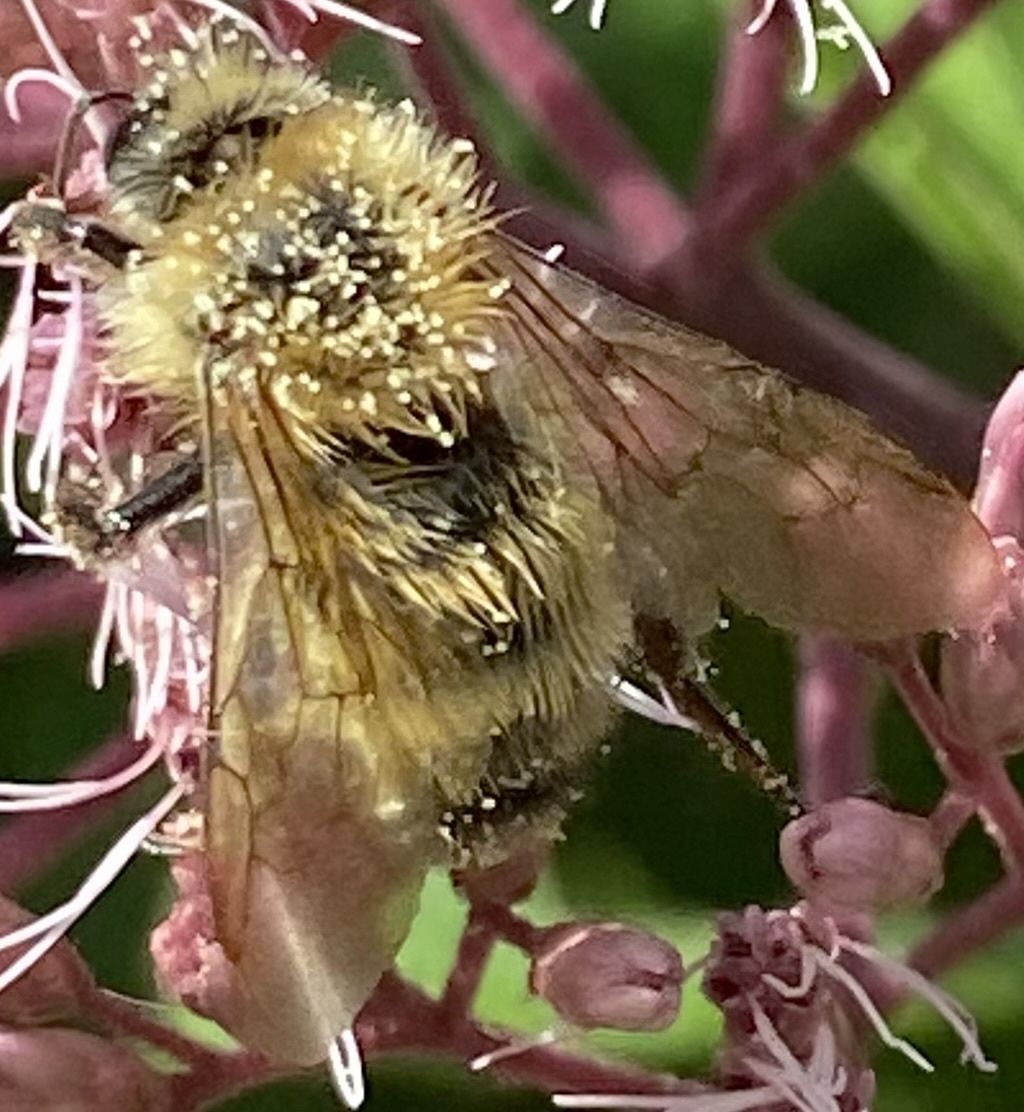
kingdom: Animalia
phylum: Arthropoda
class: Insecta
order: Hymenoptera
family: Apidae
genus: Bombus
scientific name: Bombus perplexus
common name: Confusing bumble bee
